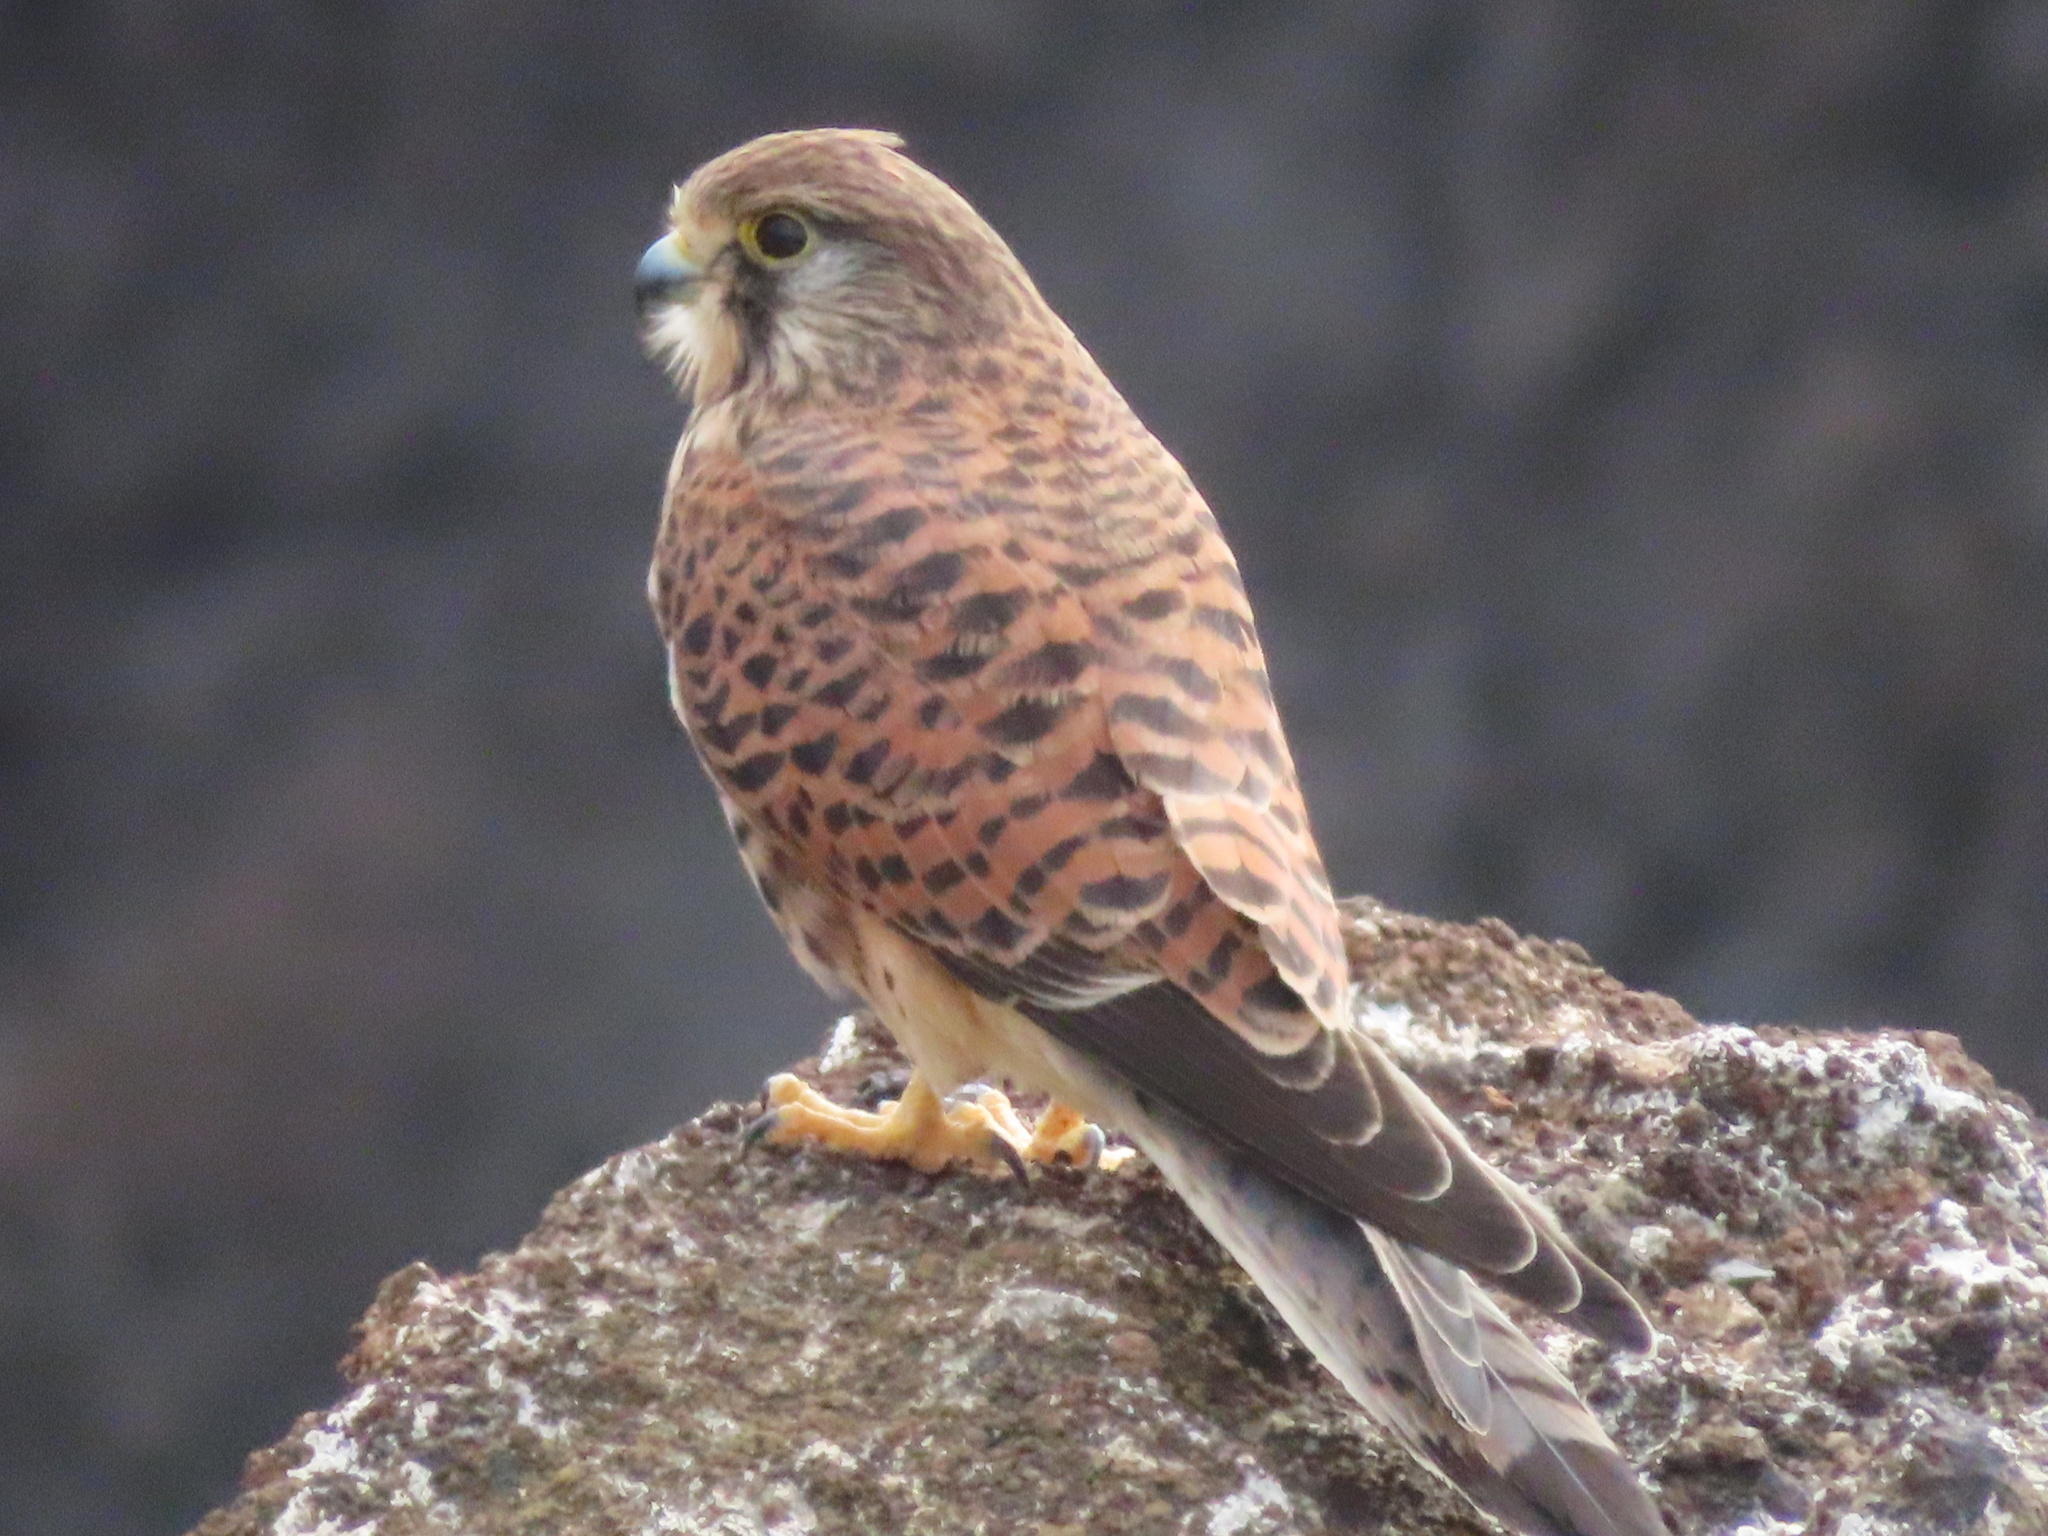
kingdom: Animalia
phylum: Chordata
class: Aves
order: Falconiformes
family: Falconidae
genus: Falco
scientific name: Falco tinnunculus
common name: Common kestrel
